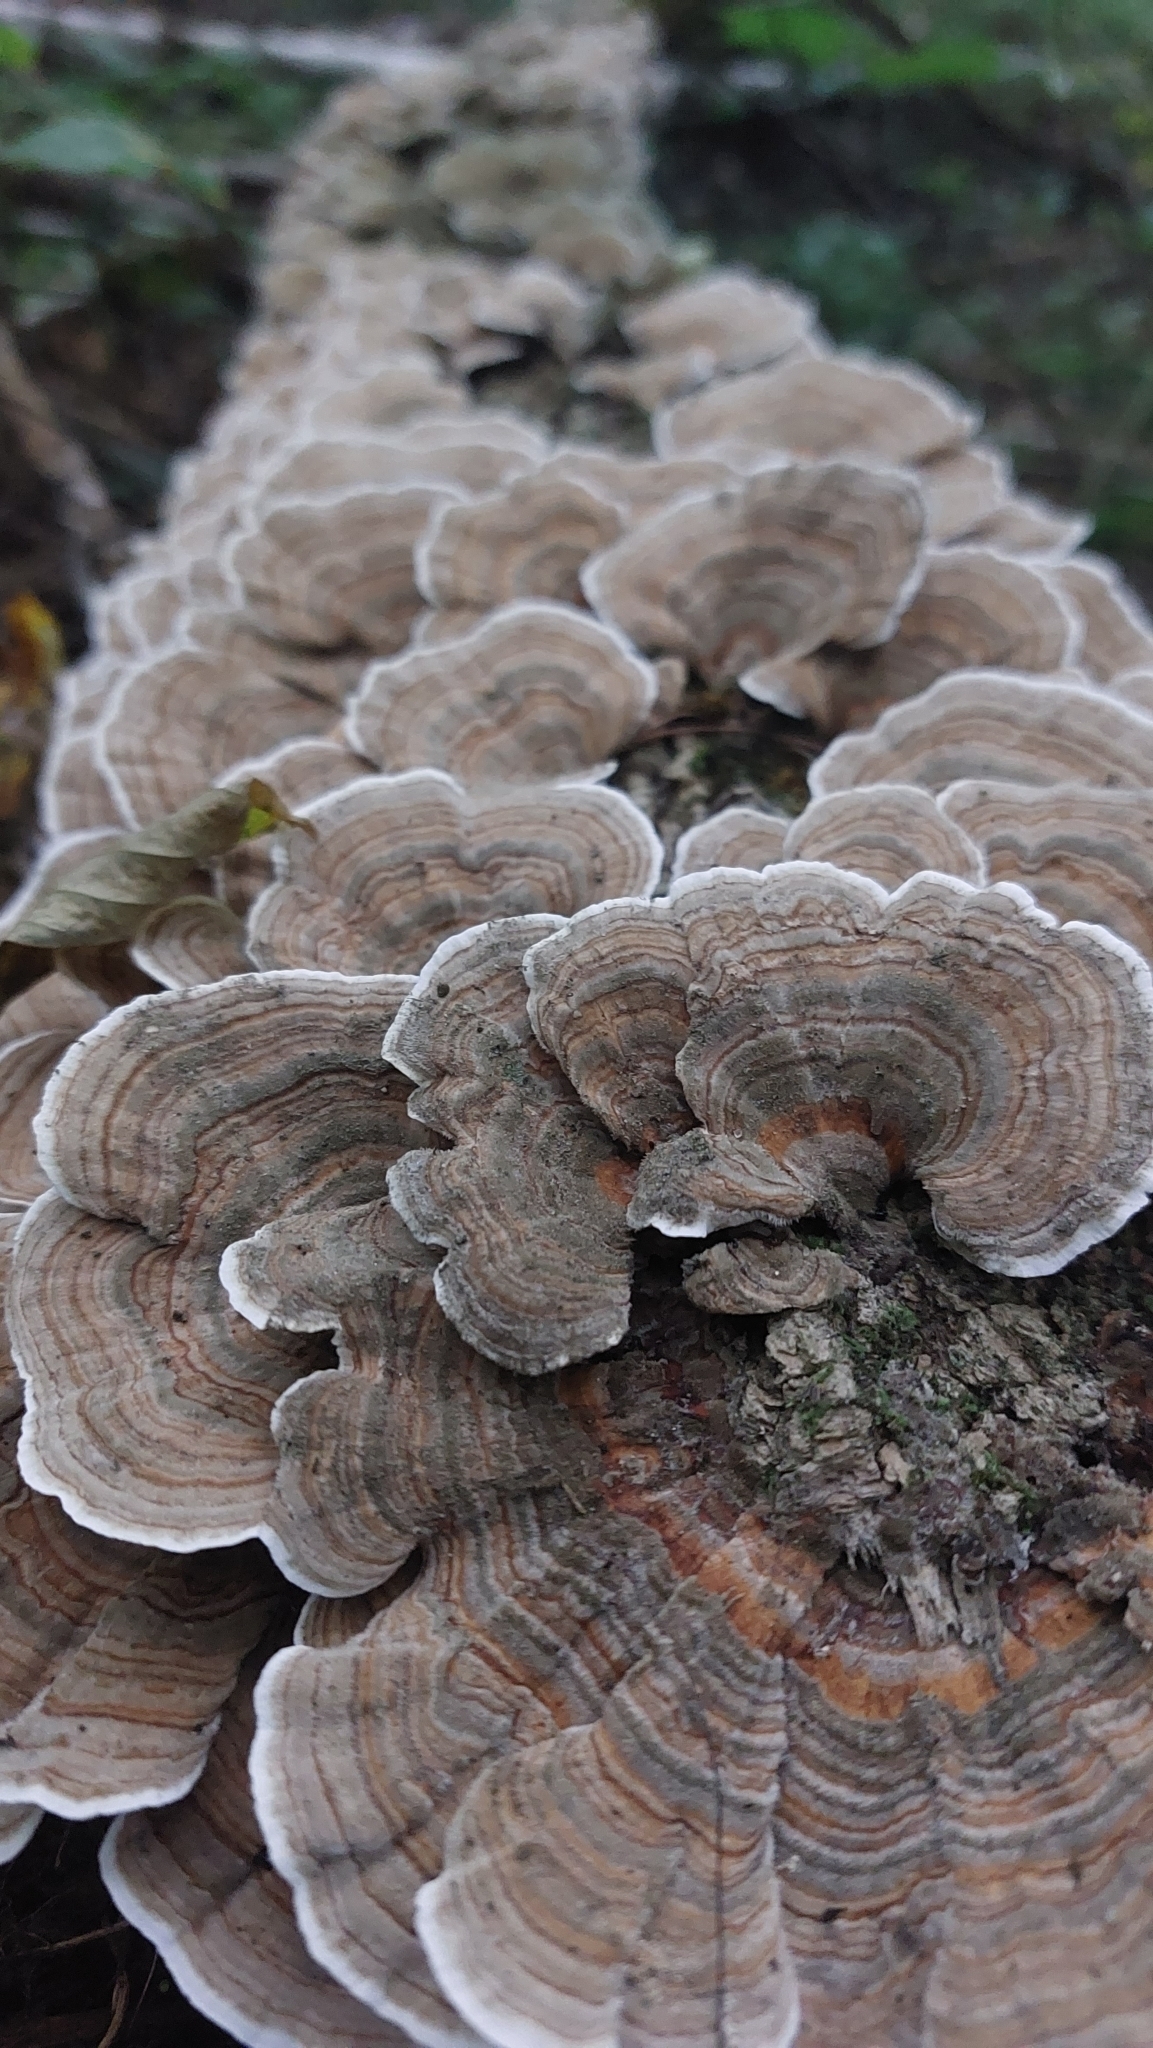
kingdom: Fungi
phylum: Basidiomycota
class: Agaricomycetes
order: Polyporales
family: Polyporaceae
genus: Trametes
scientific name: Trametes versicolor
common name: Turkeytail
